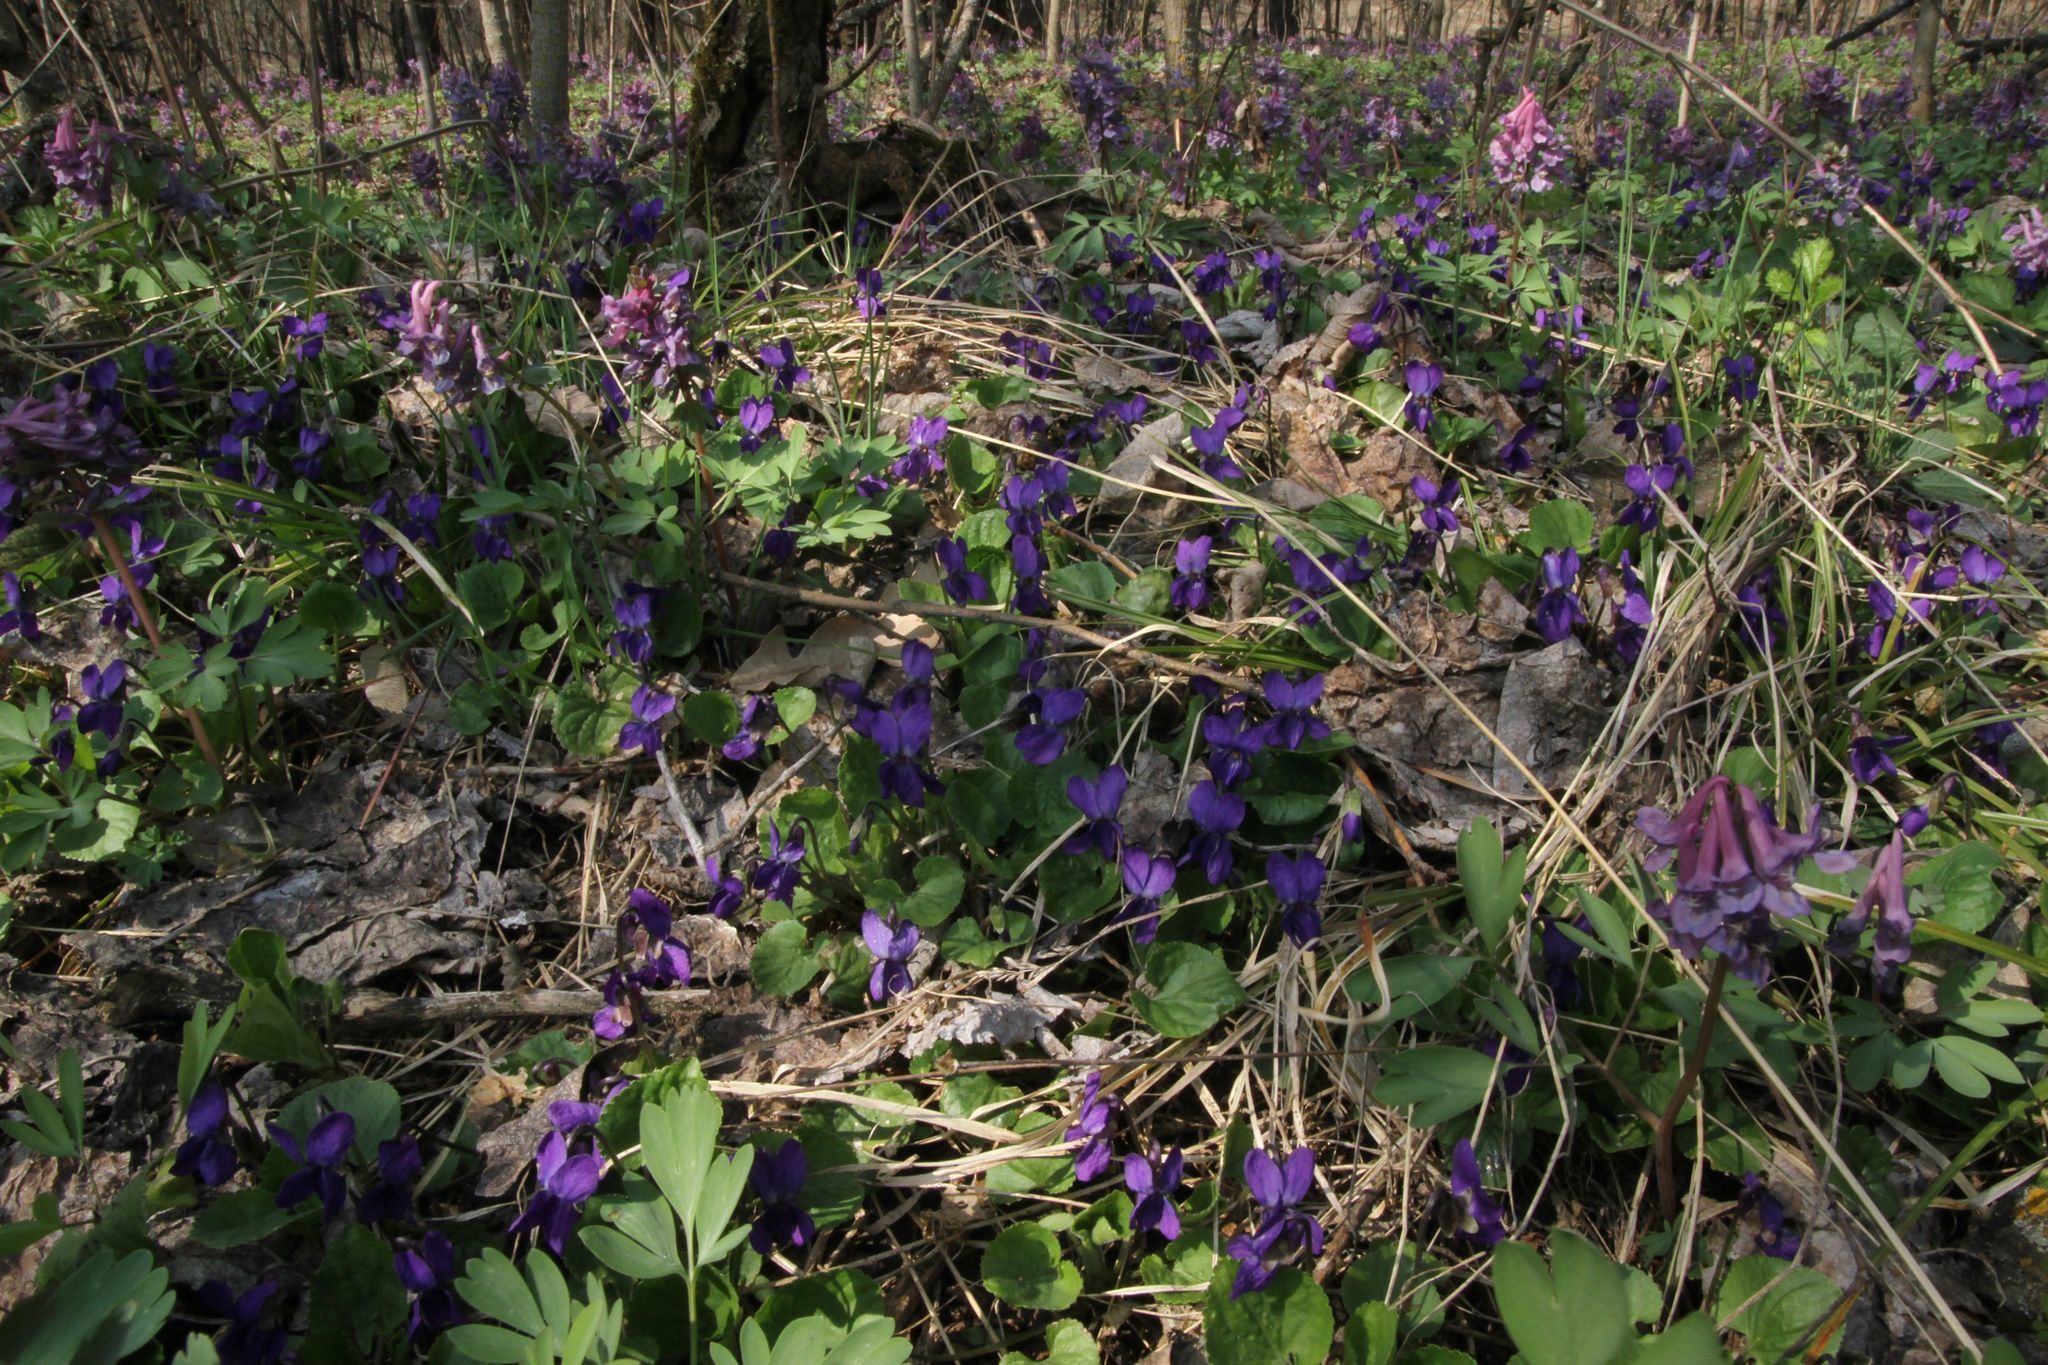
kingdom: Plantae
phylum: Tracheophyta
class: Magnoliopsida
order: Malpighiales
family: Violaceae
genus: Viola
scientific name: Viola odorata
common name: Sweet violet
